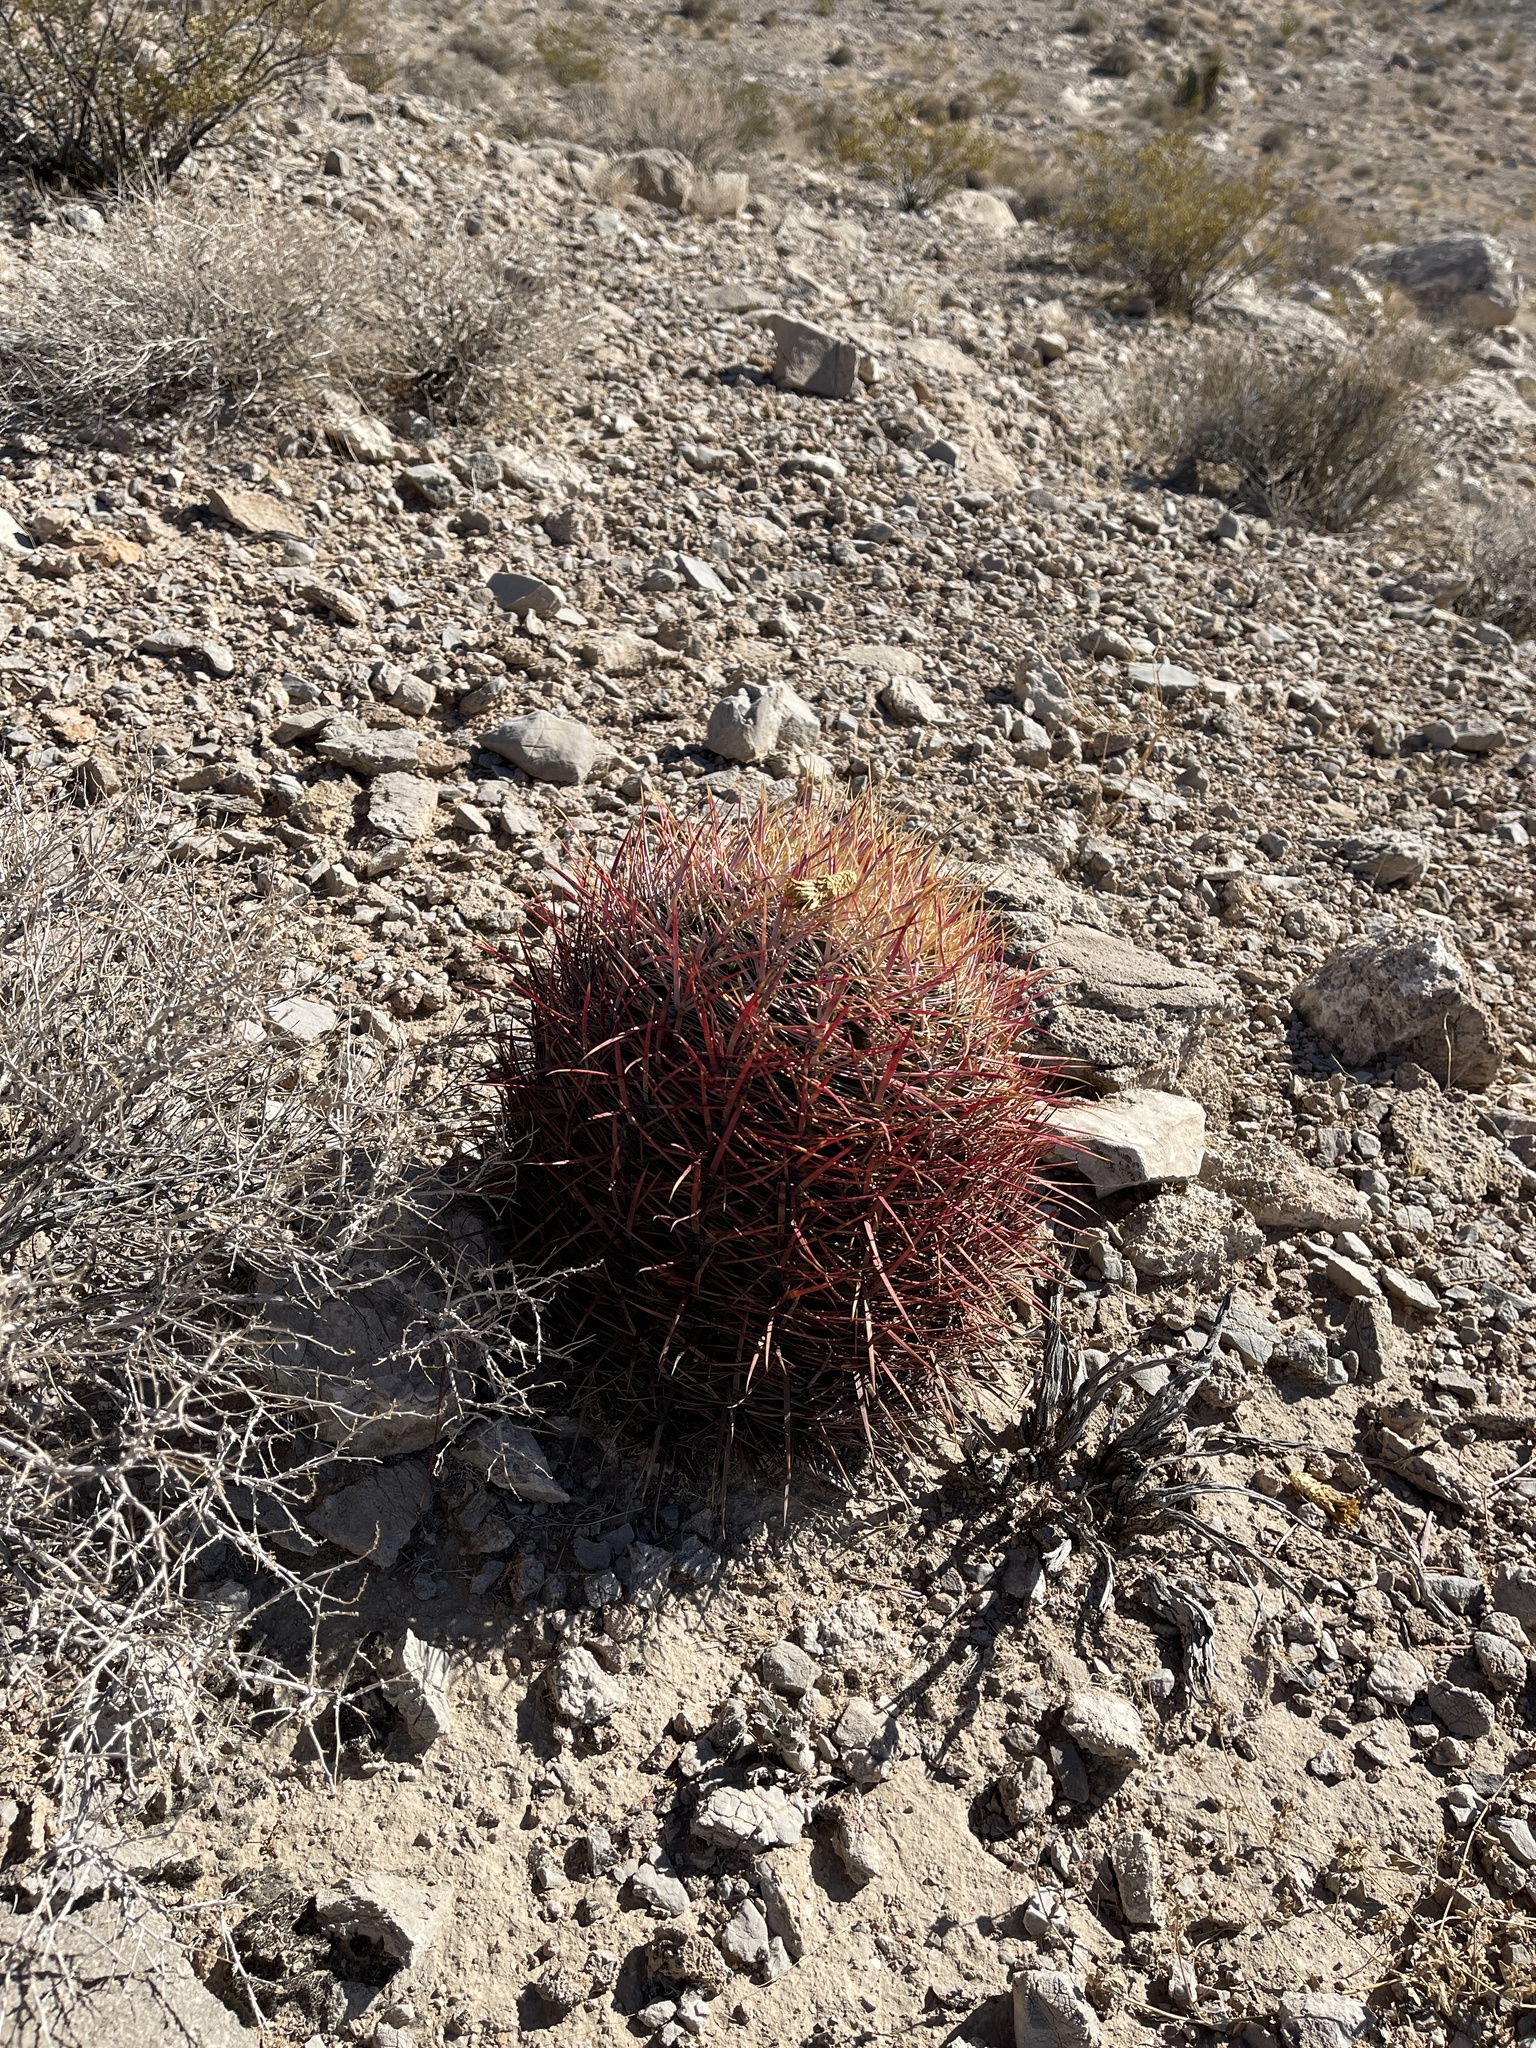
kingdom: Plantae
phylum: Tracheophyta
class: Magnoliopsida
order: Caryophyllales
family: Cactaceae
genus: Ferocactus
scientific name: Ferocactus cylindraceus
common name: California barrel cactus
